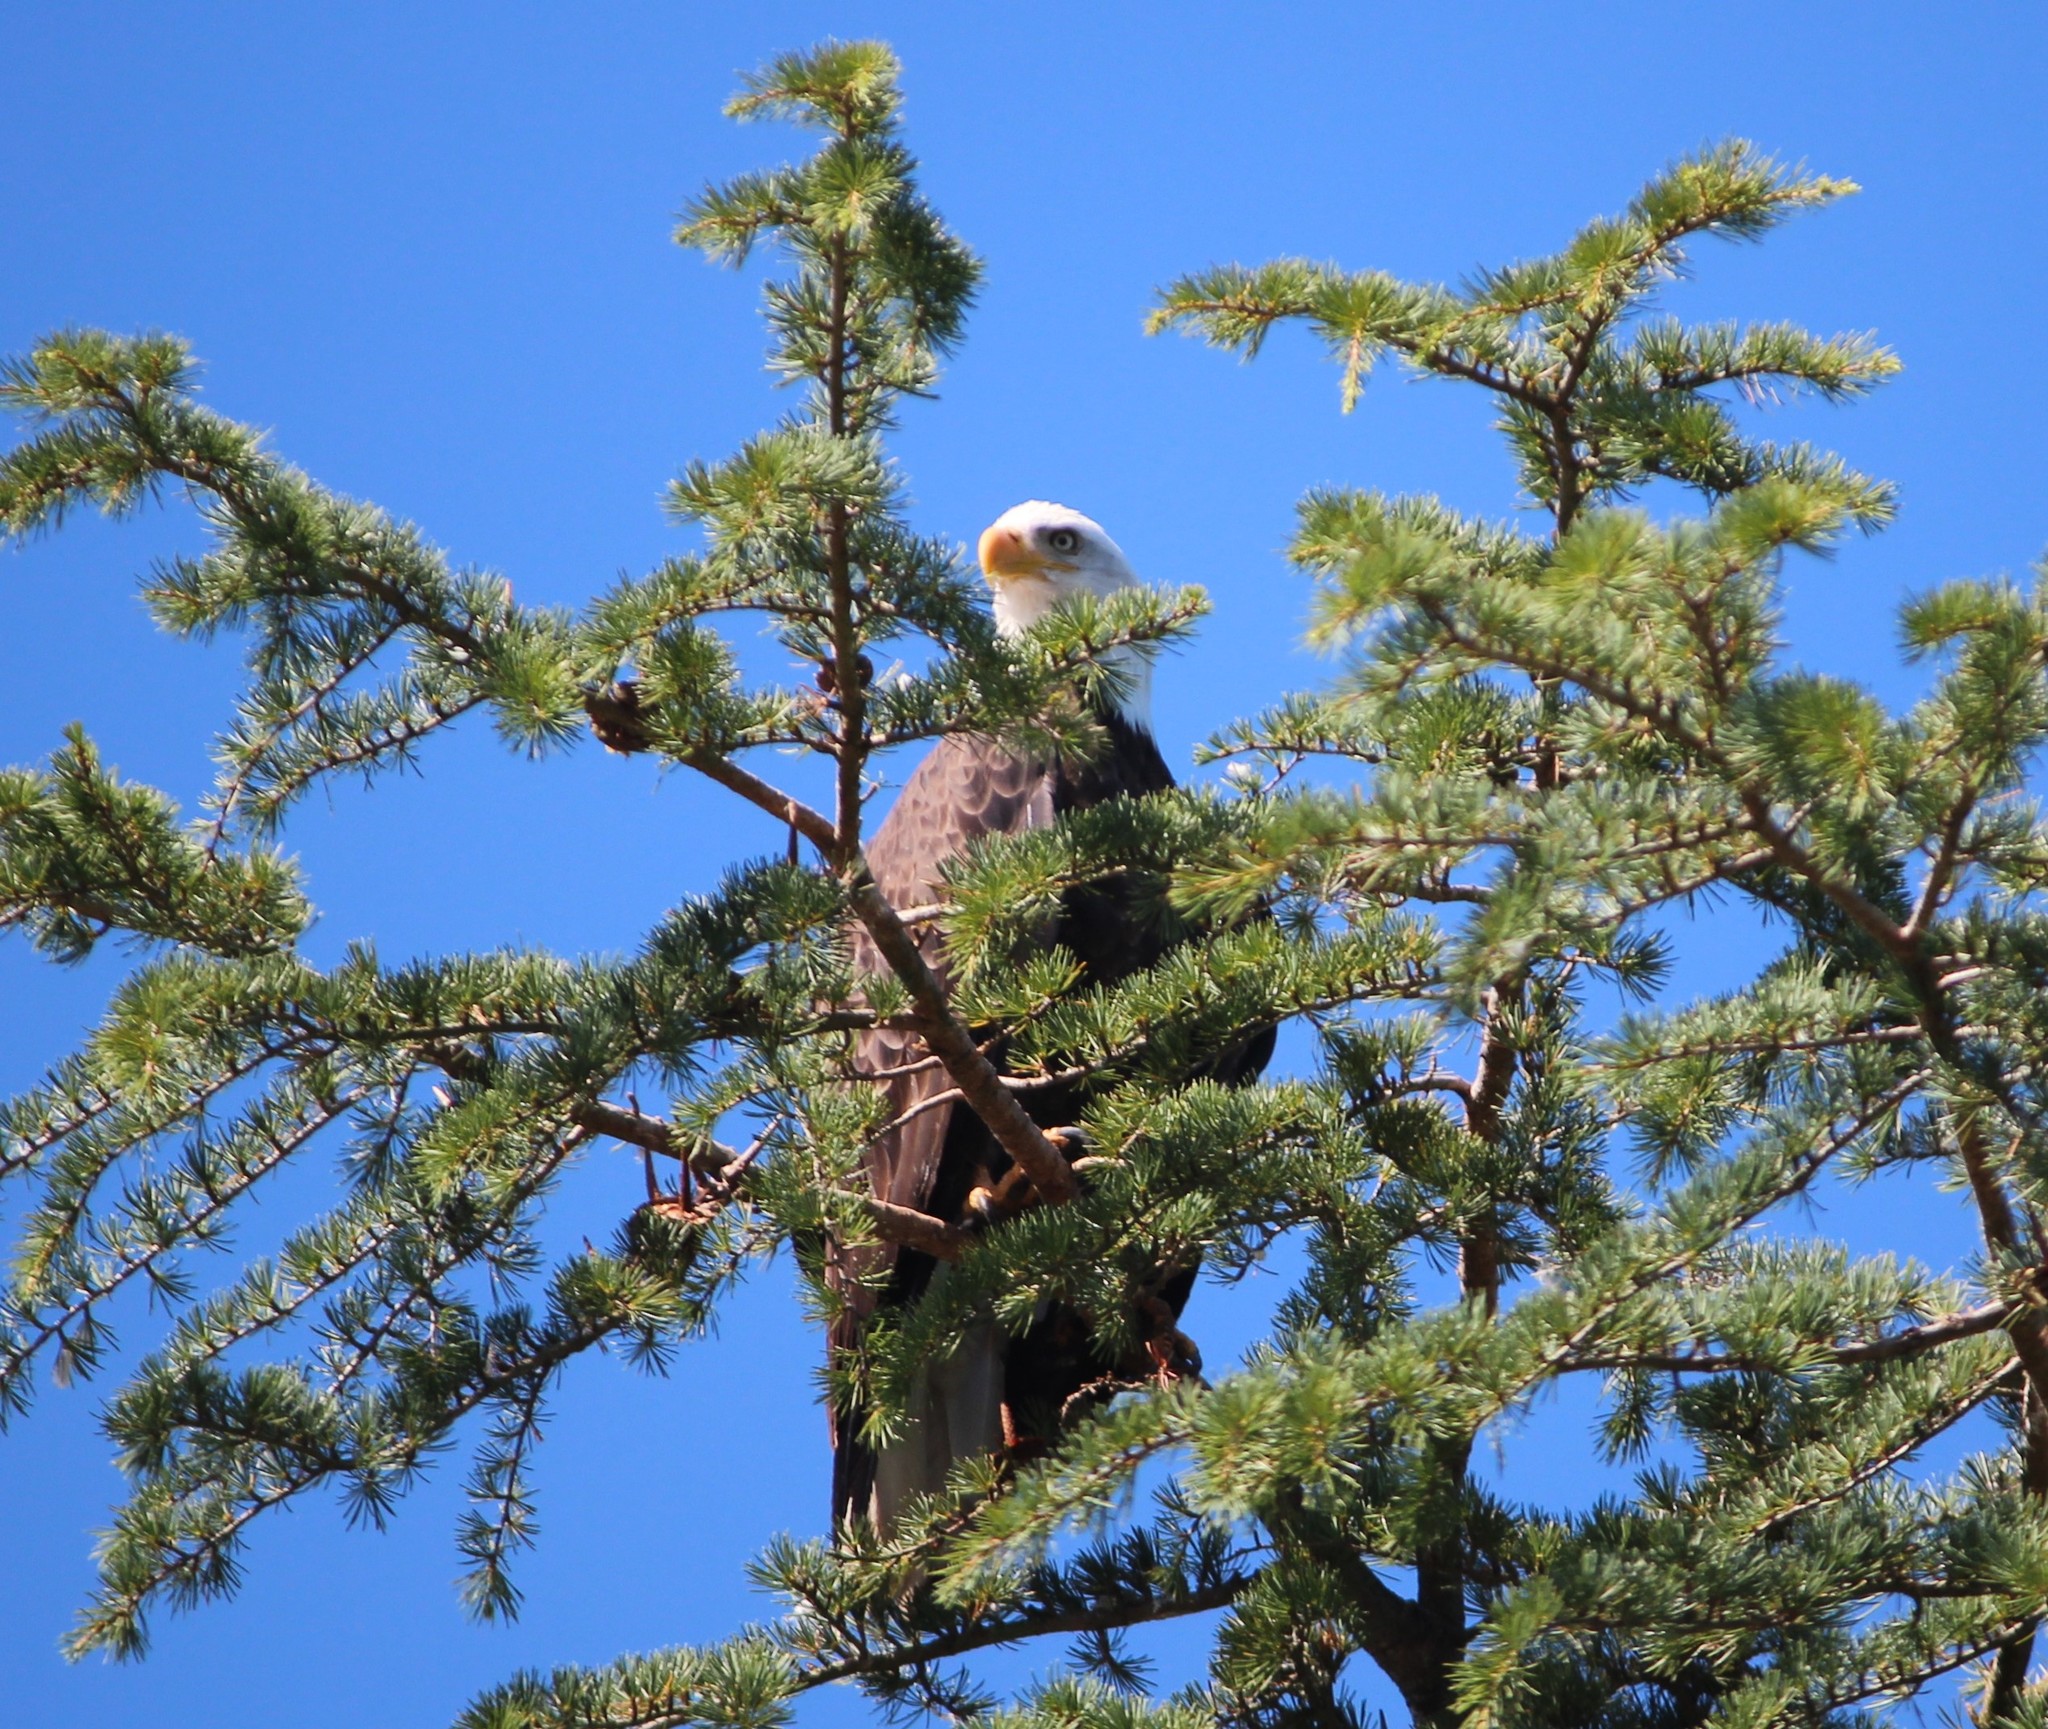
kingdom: Animalia
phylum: Chordata
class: Aves
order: Accipitriformes
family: Accipitridae
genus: Haliaeetus
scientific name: Haliaeetus leucocephalus
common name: Bald eagle
